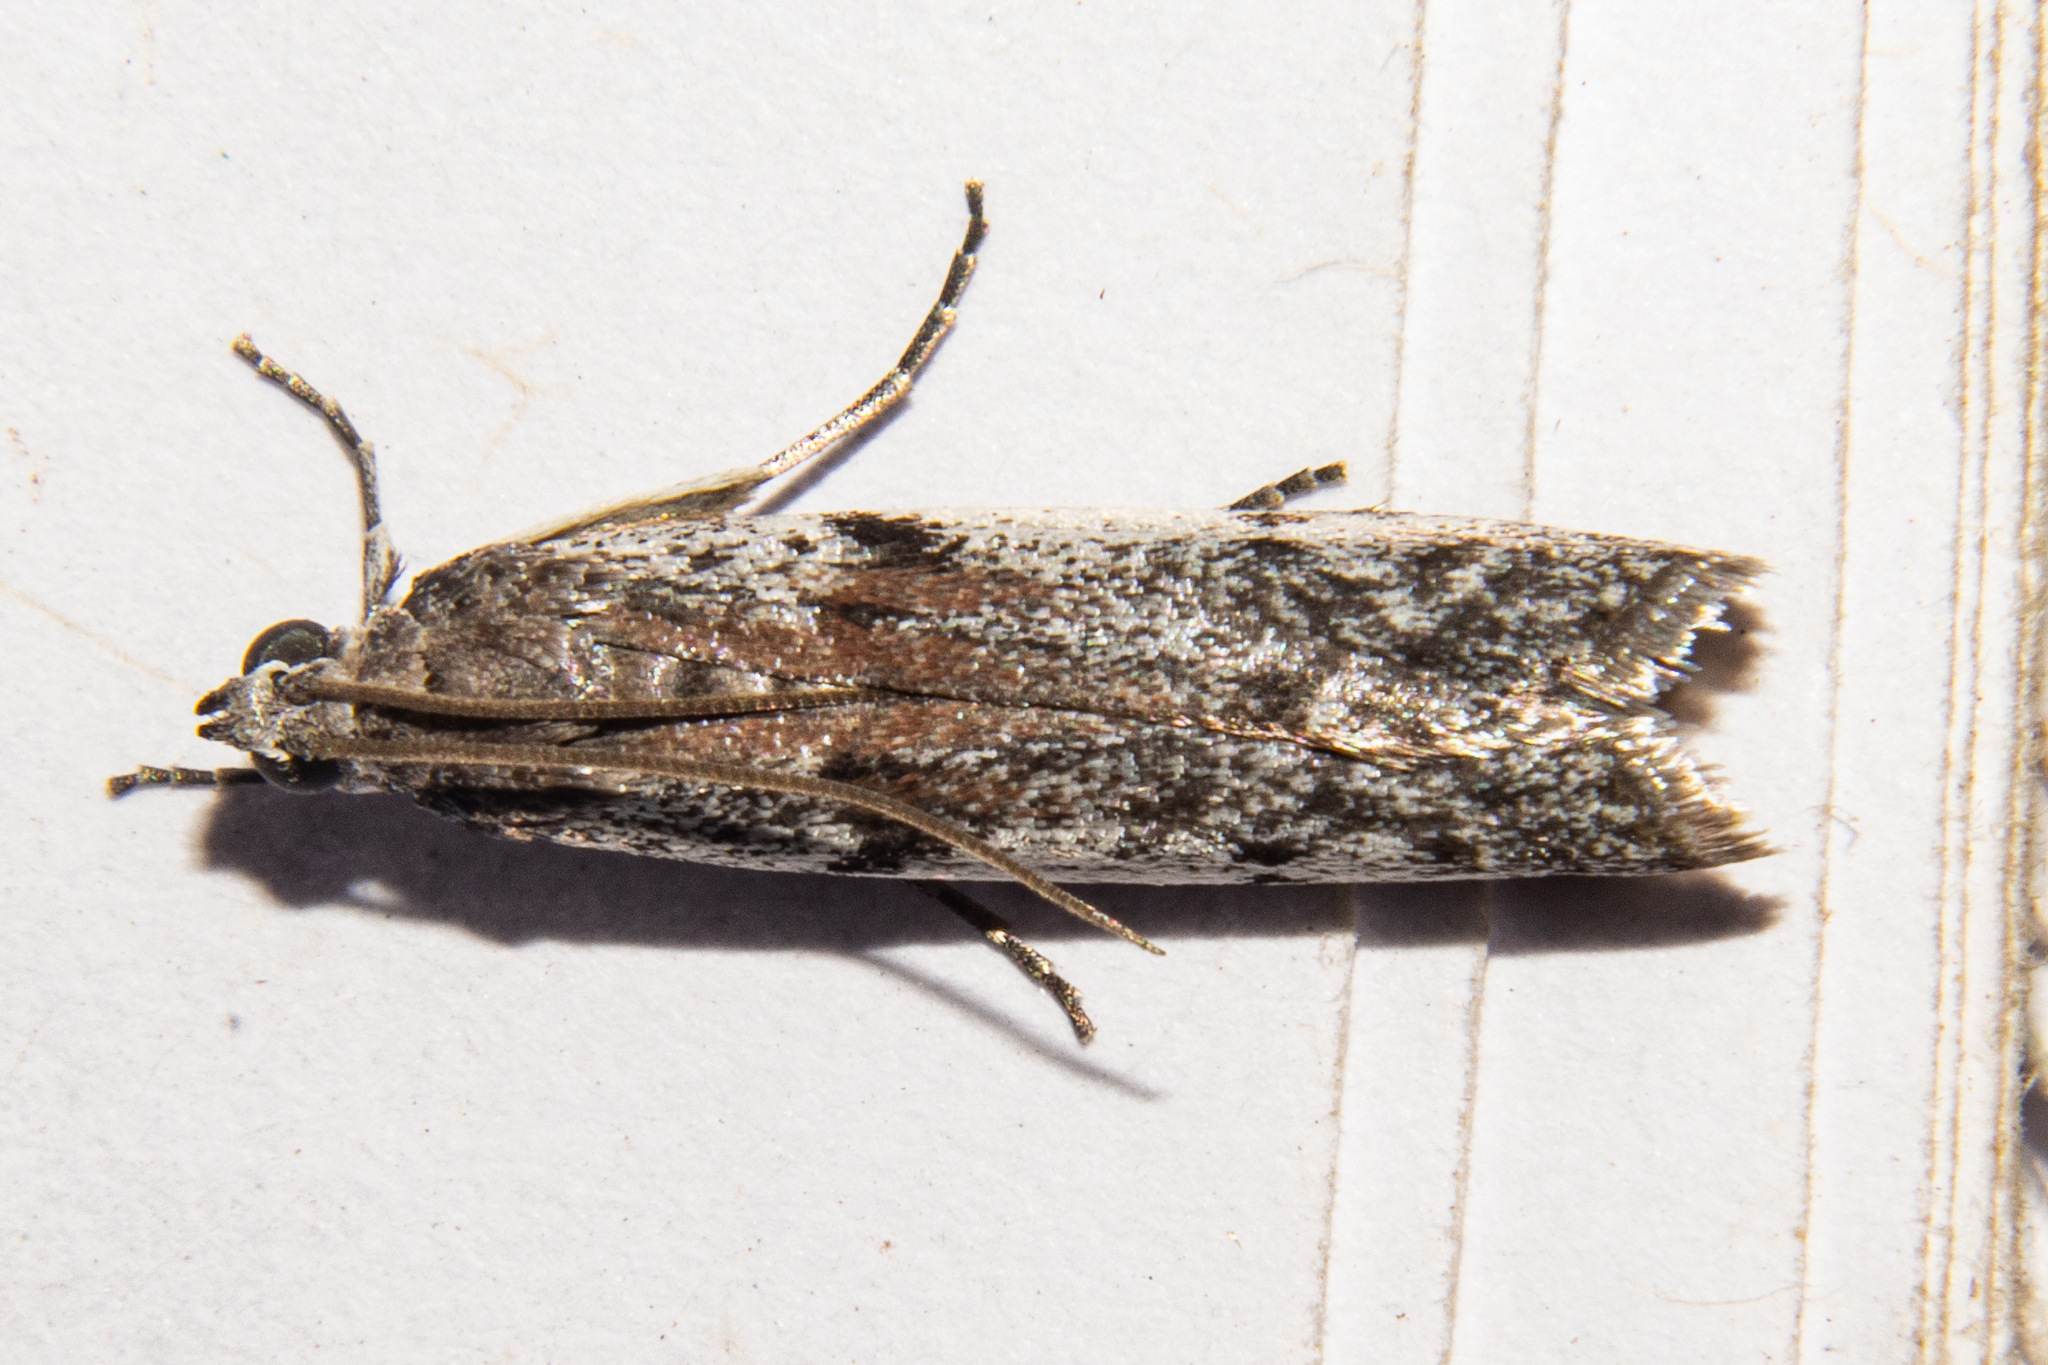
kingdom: Animalia
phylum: Arthropoda
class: Insecta
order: Lepidoptera
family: Pyralidae
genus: Patagoniodes
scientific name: Patagoniodes farinaria
